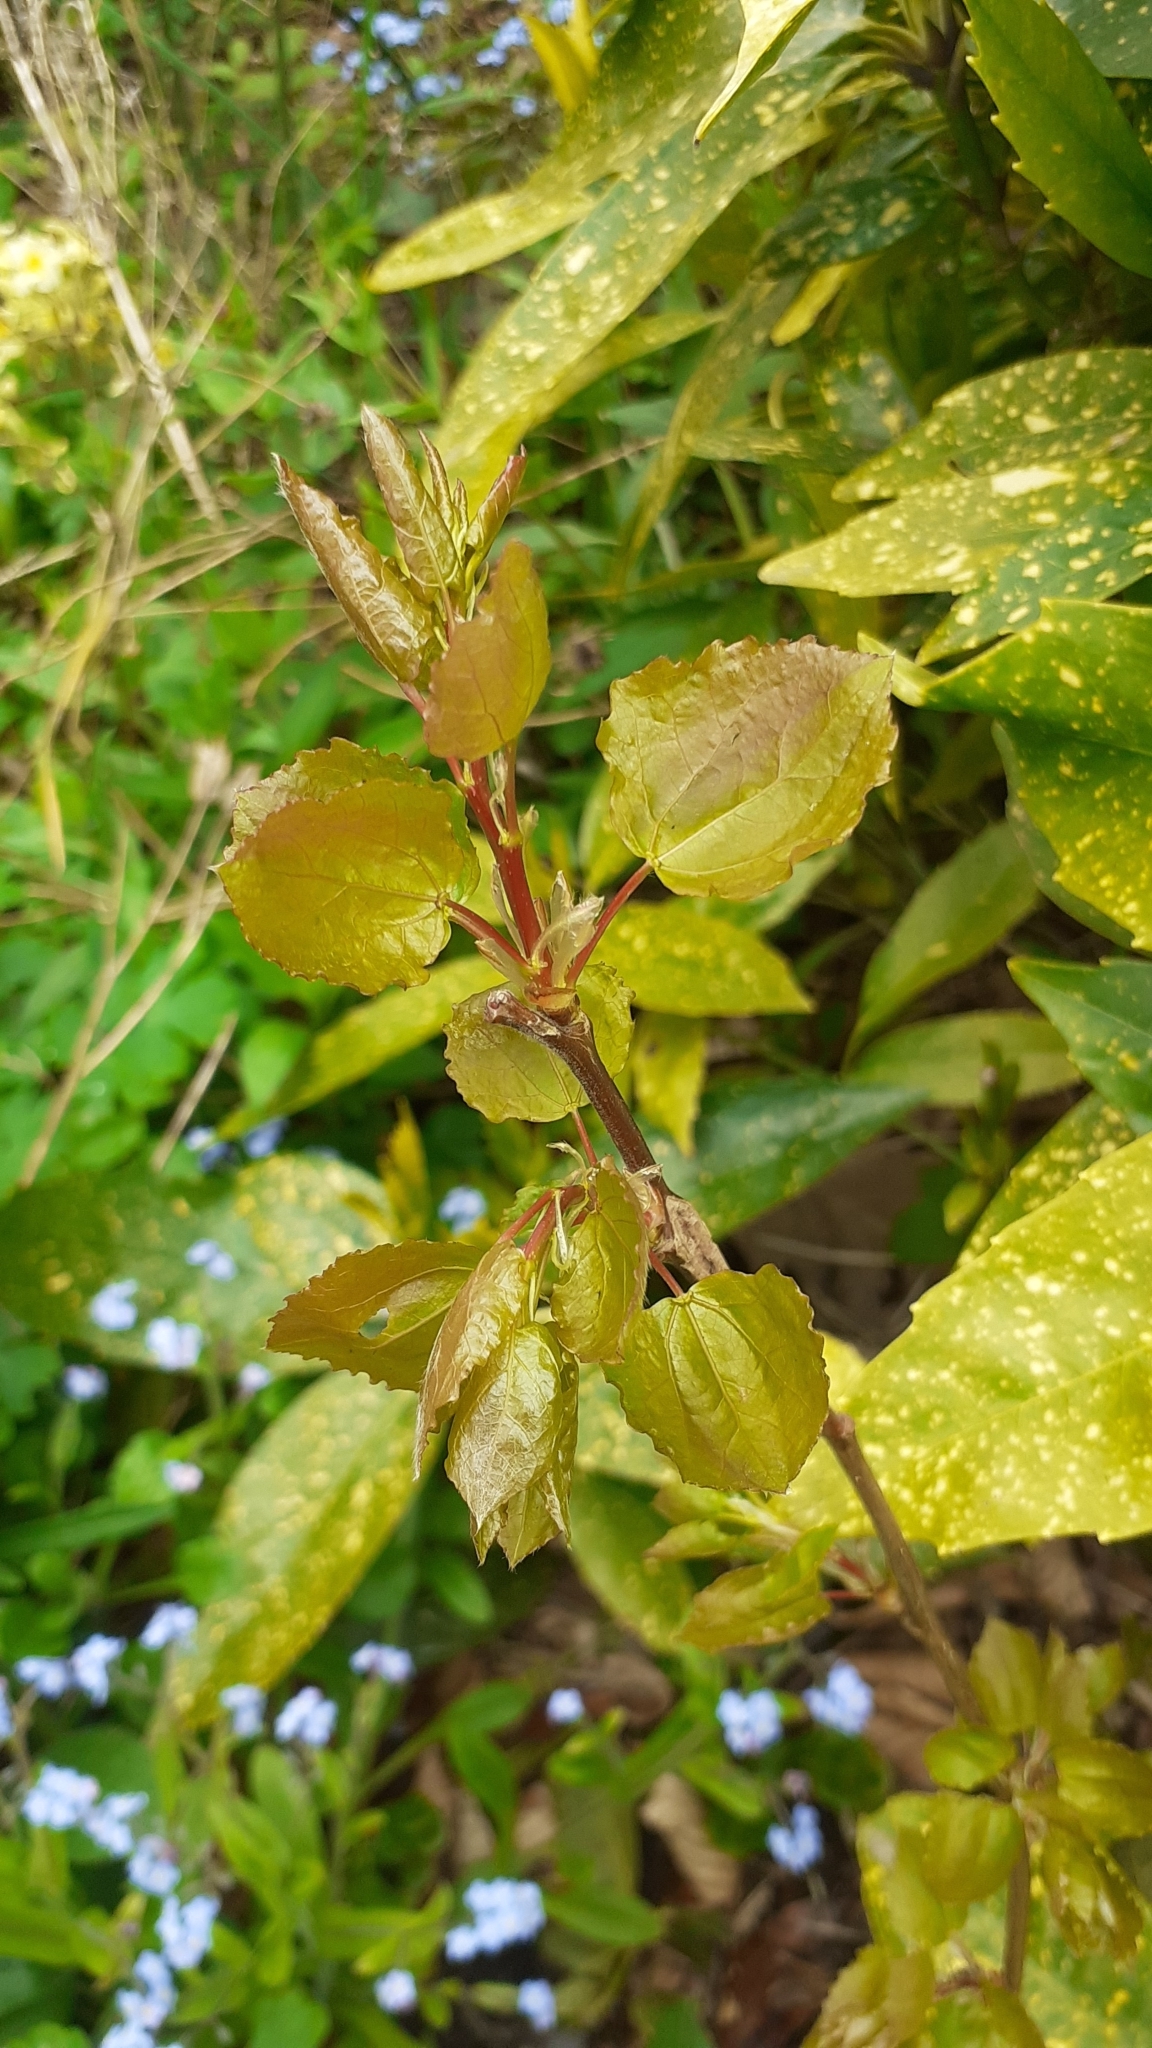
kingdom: Plantae
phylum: Tracheophyta
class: Magnoliopsida
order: Malpighiales
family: Salicaceae
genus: Populus
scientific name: Populus tremula
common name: European aspen
